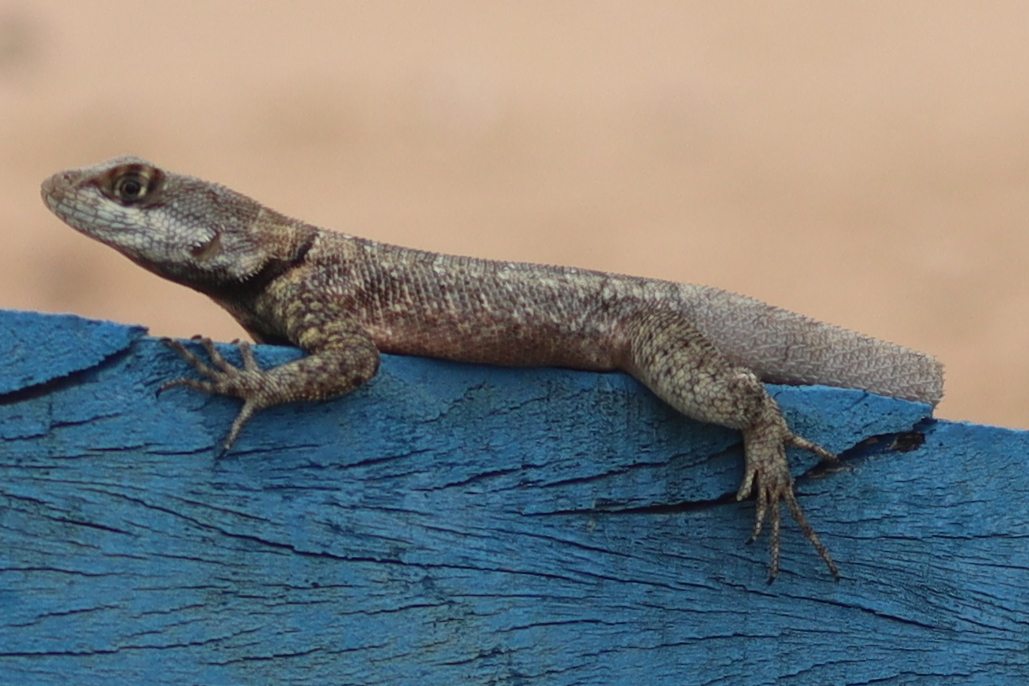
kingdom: Animalia
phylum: Chordata
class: Squamata
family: Tropiduridae
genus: Tropidurus
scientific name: Tropidurus hispidus
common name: Peters' lava lizard
